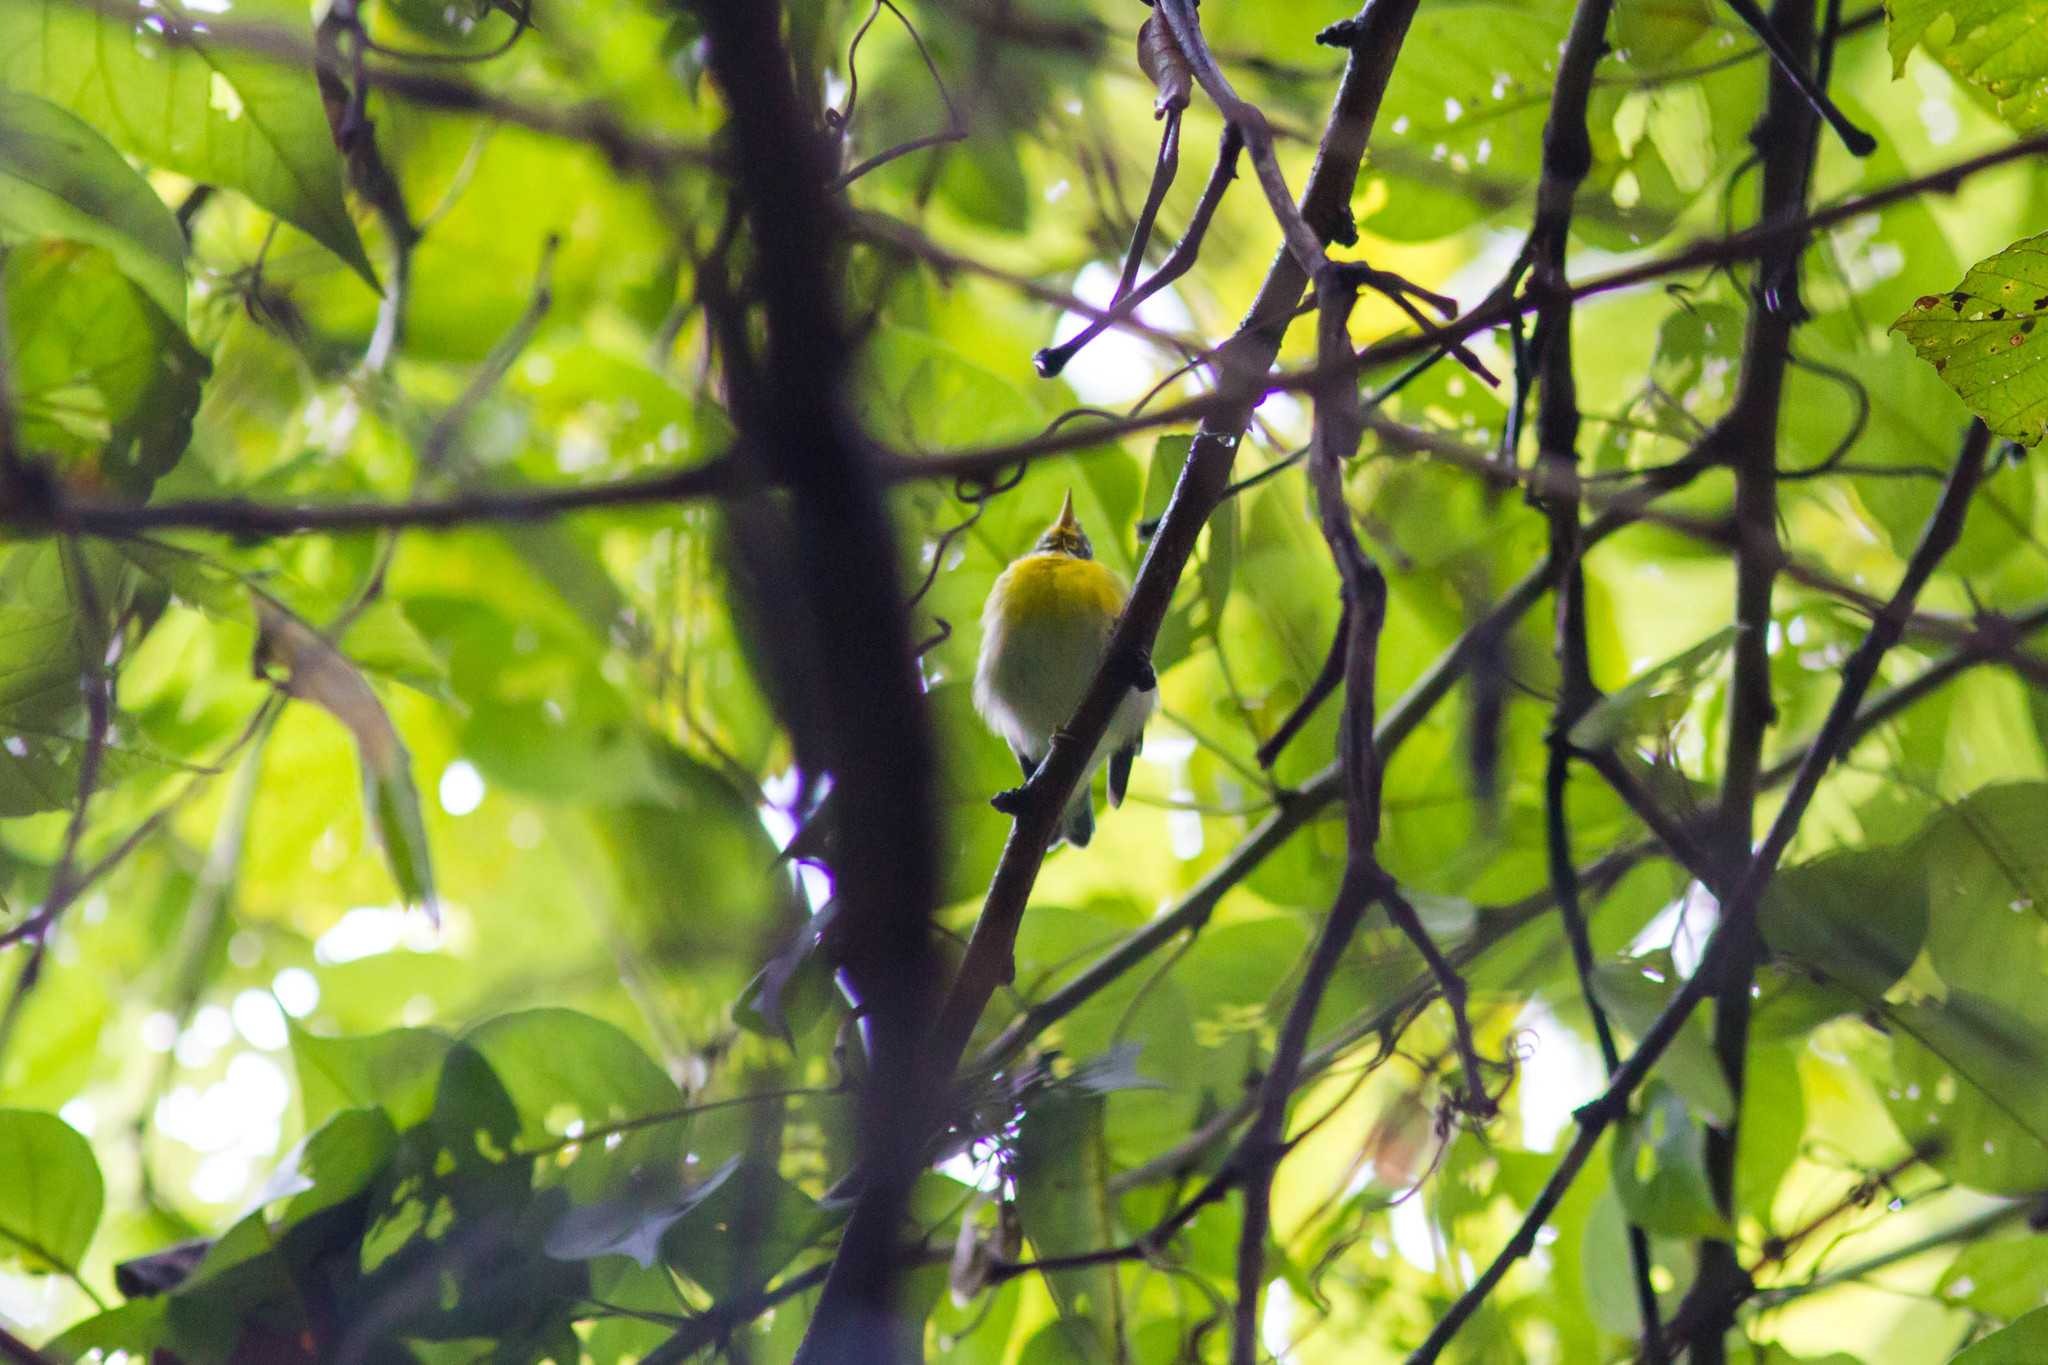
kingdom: Animalia
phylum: Chordata
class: Aves
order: Passeriformes
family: Parulidae
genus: Setophaga
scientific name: Setophaga americana
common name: Northern parula
